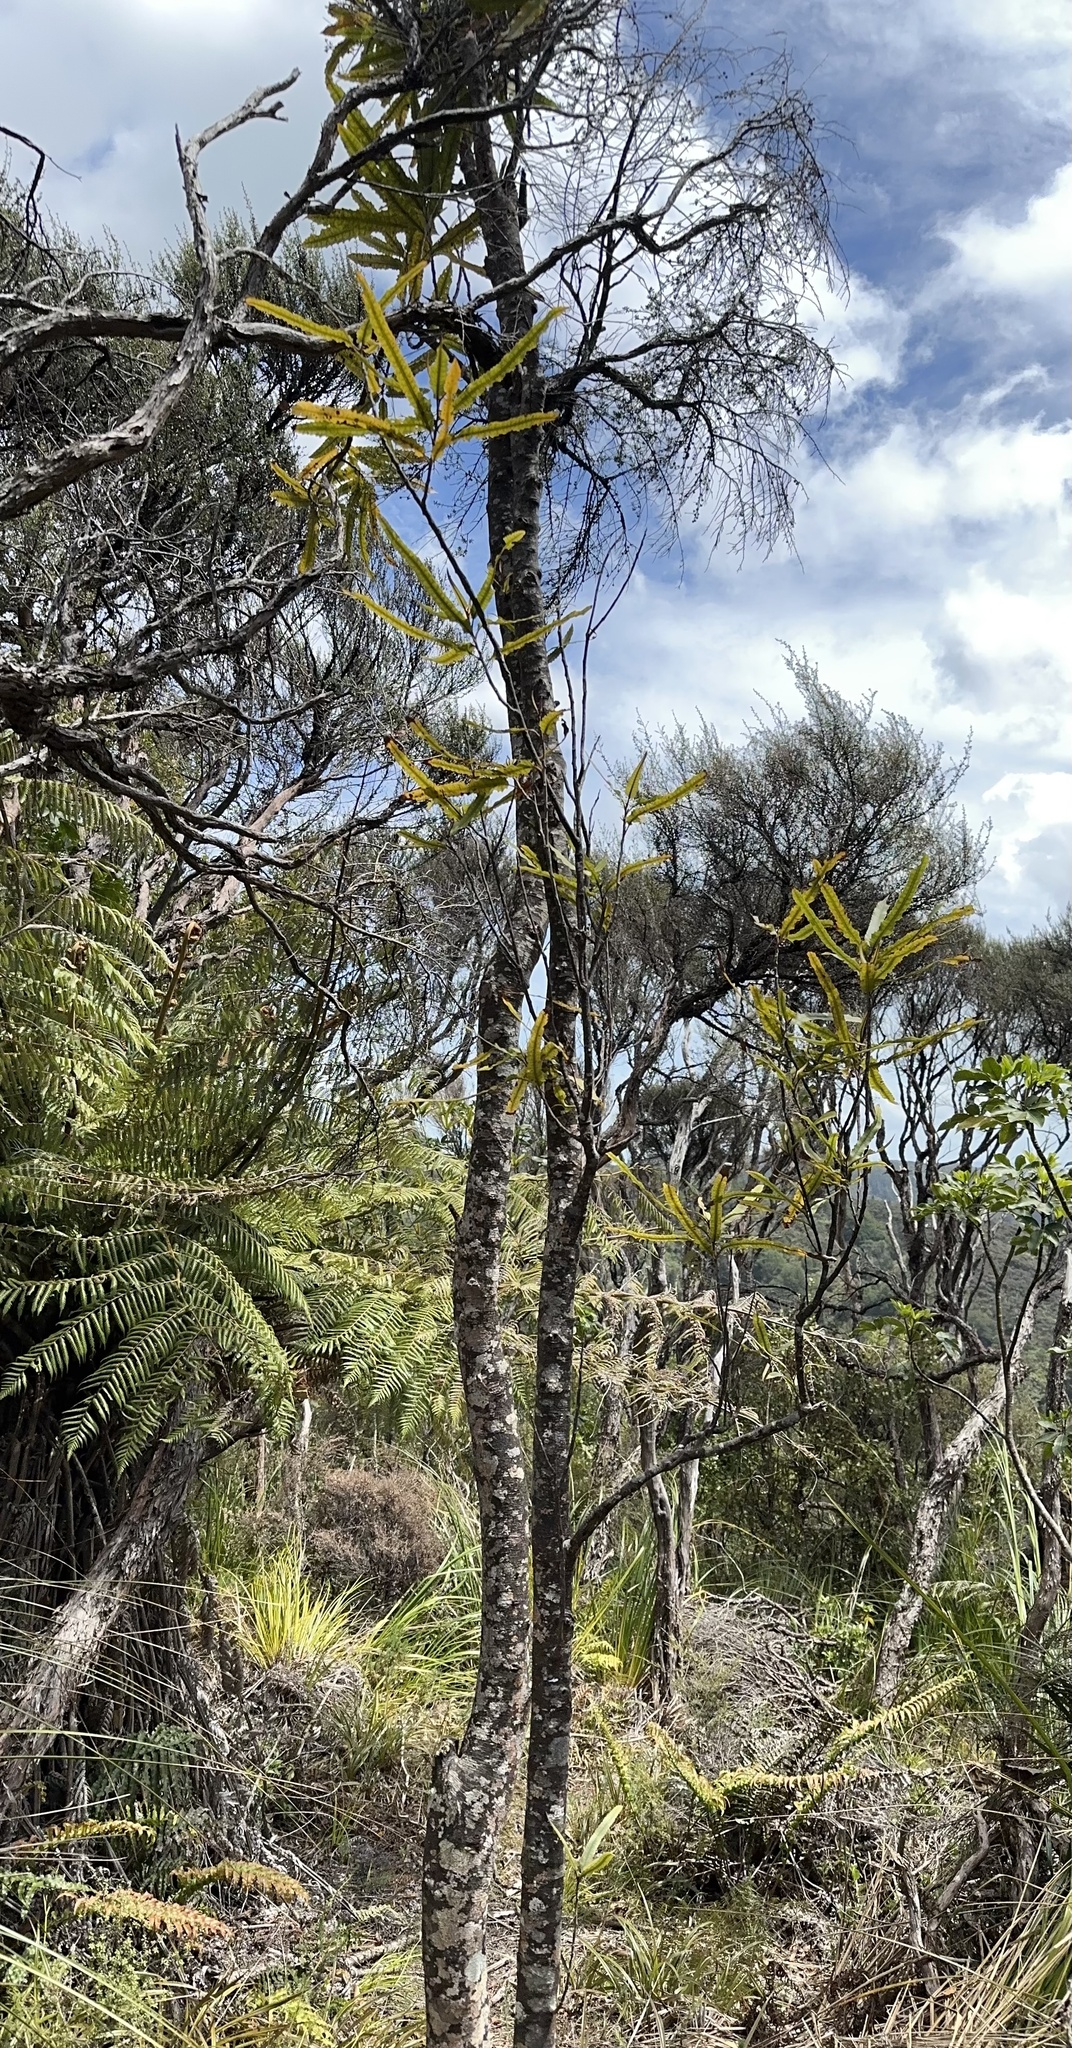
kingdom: Plantae
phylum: Tracheophyta
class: Magnoliopsida
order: Proteales
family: Proteaceae
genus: Knightia
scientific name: Knightia excelsa
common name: New zealand-honeysuckle
